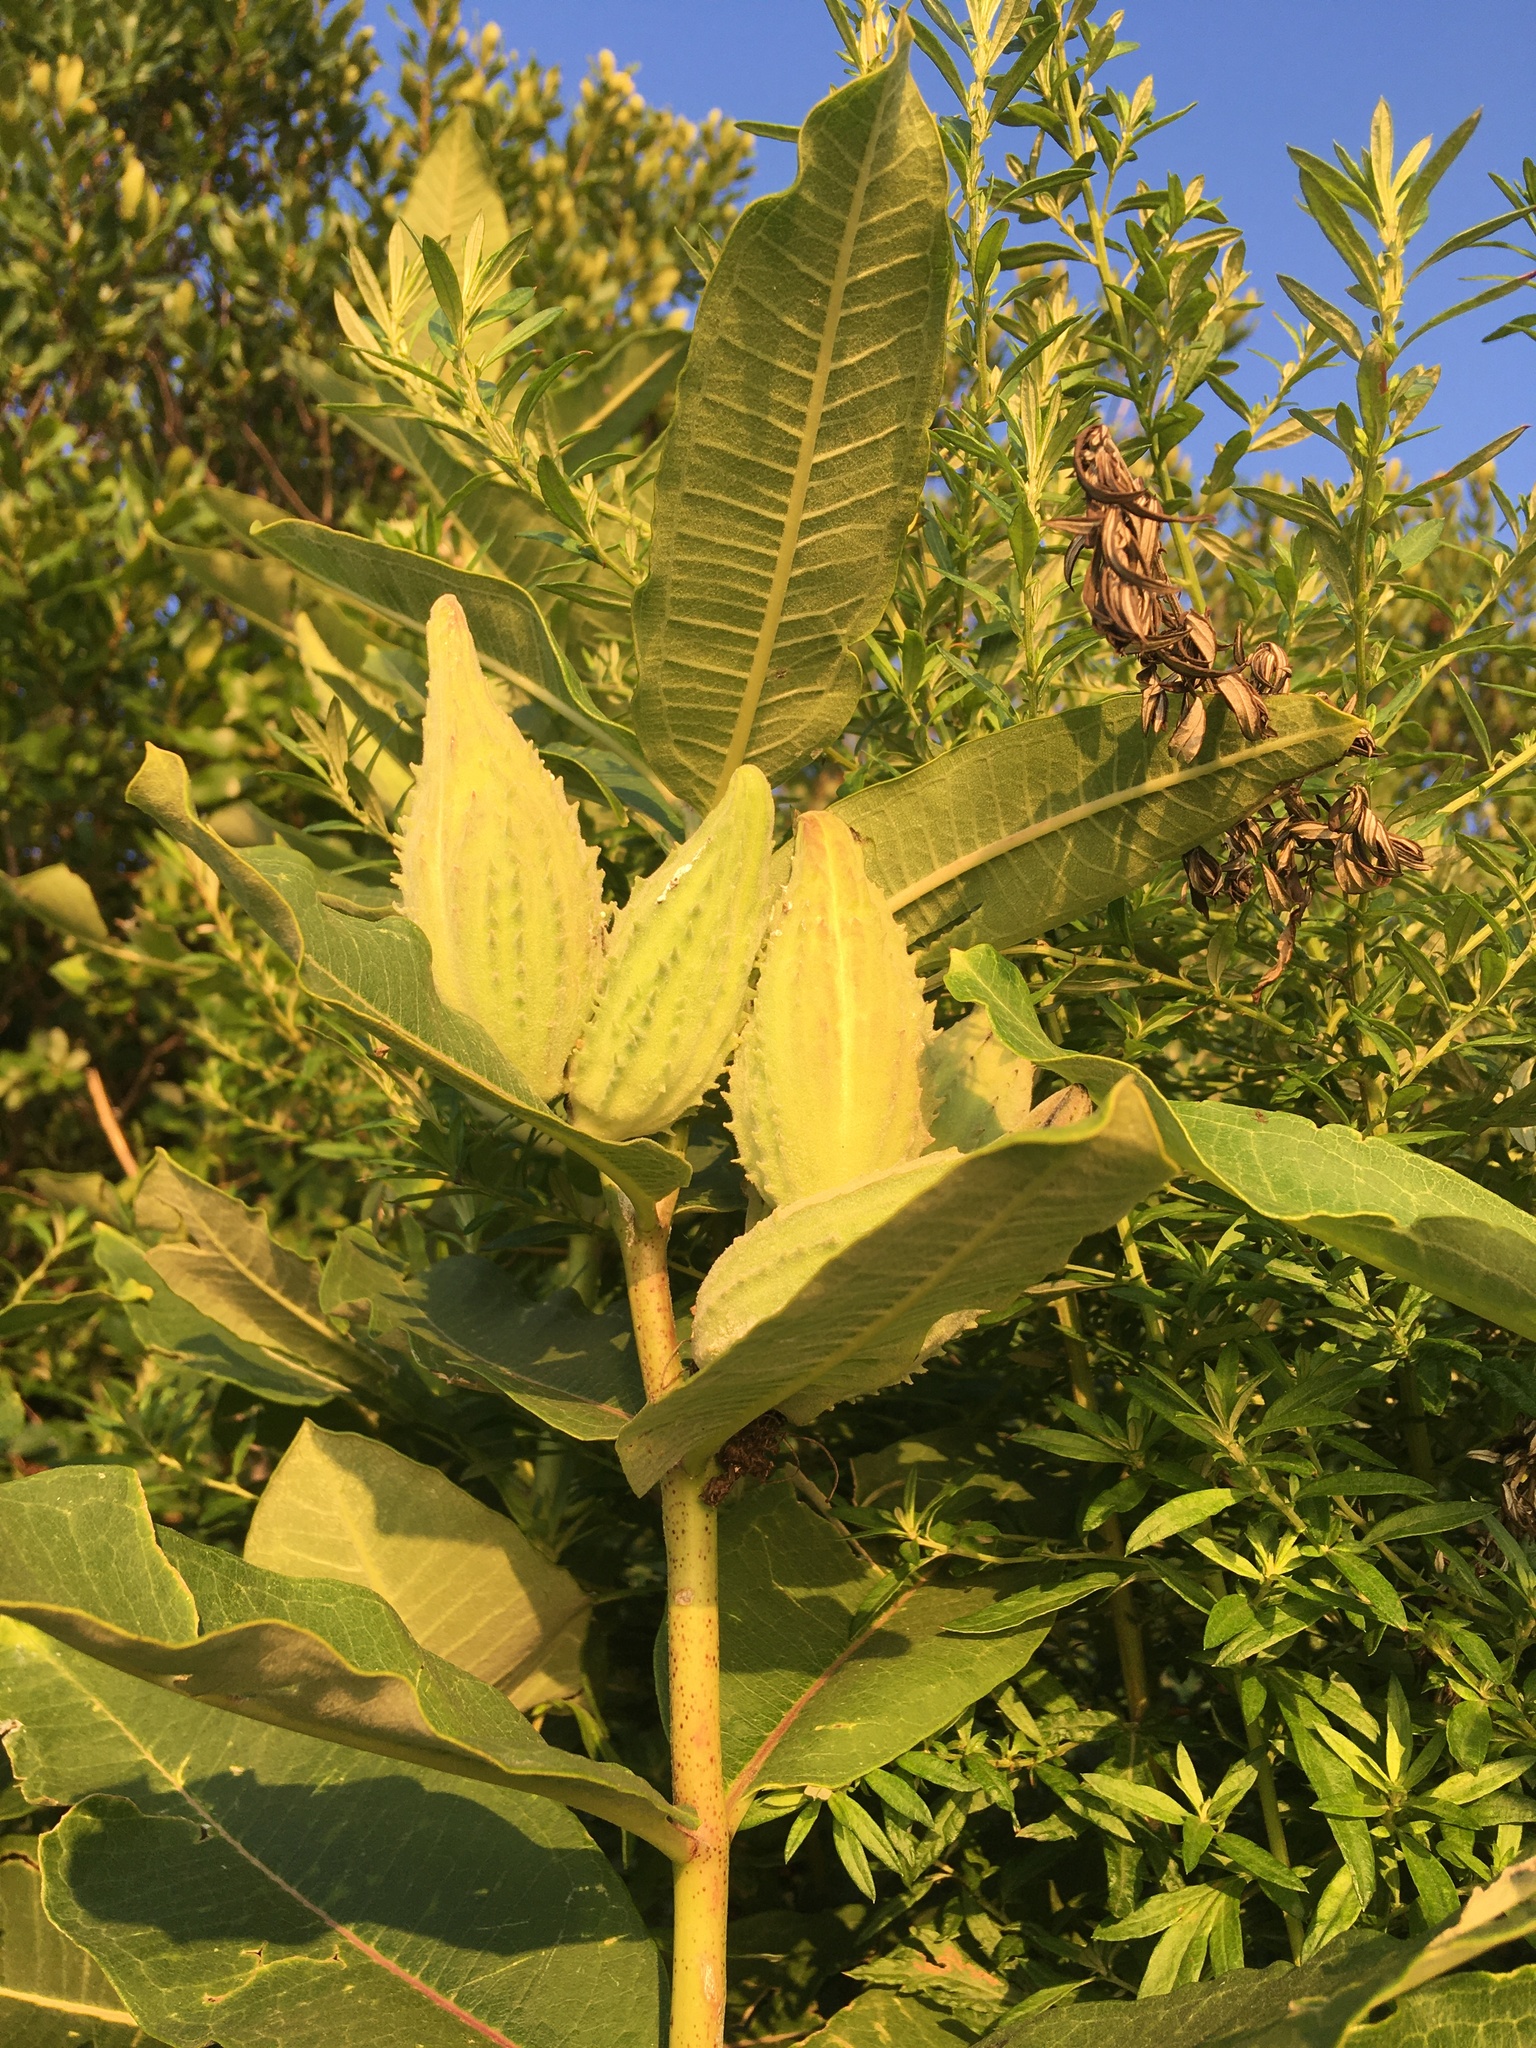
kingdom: Plantae
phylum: Tracheophyta
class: Magnoliopsida
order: Gentianales
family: Apocynaceae
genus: Asclepias
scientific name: Asclepias syriaca
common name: Common milkweed
